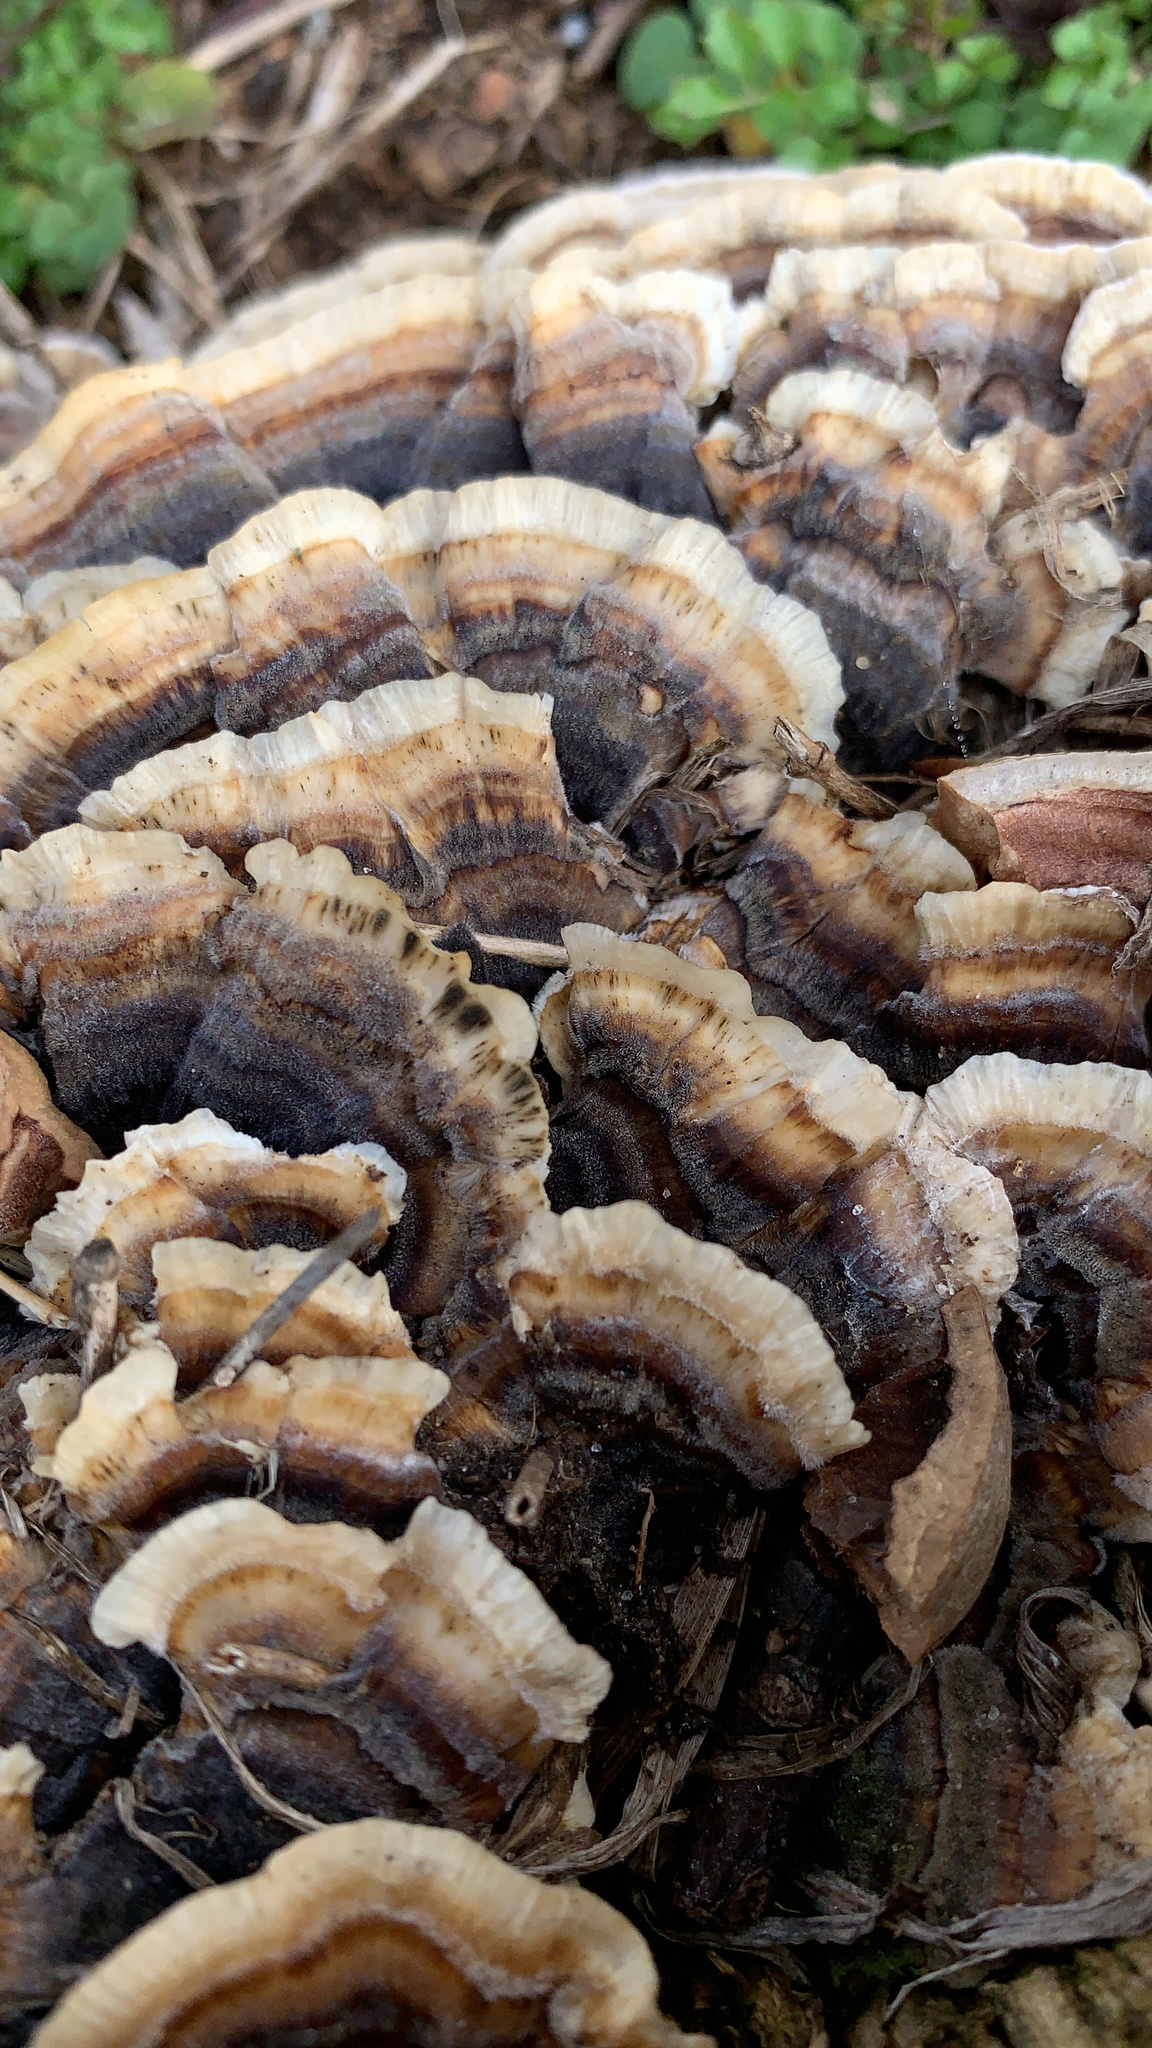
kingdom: Fungi
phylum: Basidiomycota
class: Agaricomycetes
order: Polyporales
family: Polyporaceae
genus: Trametes
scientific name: Trametes versicolor
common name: Turkeytail
